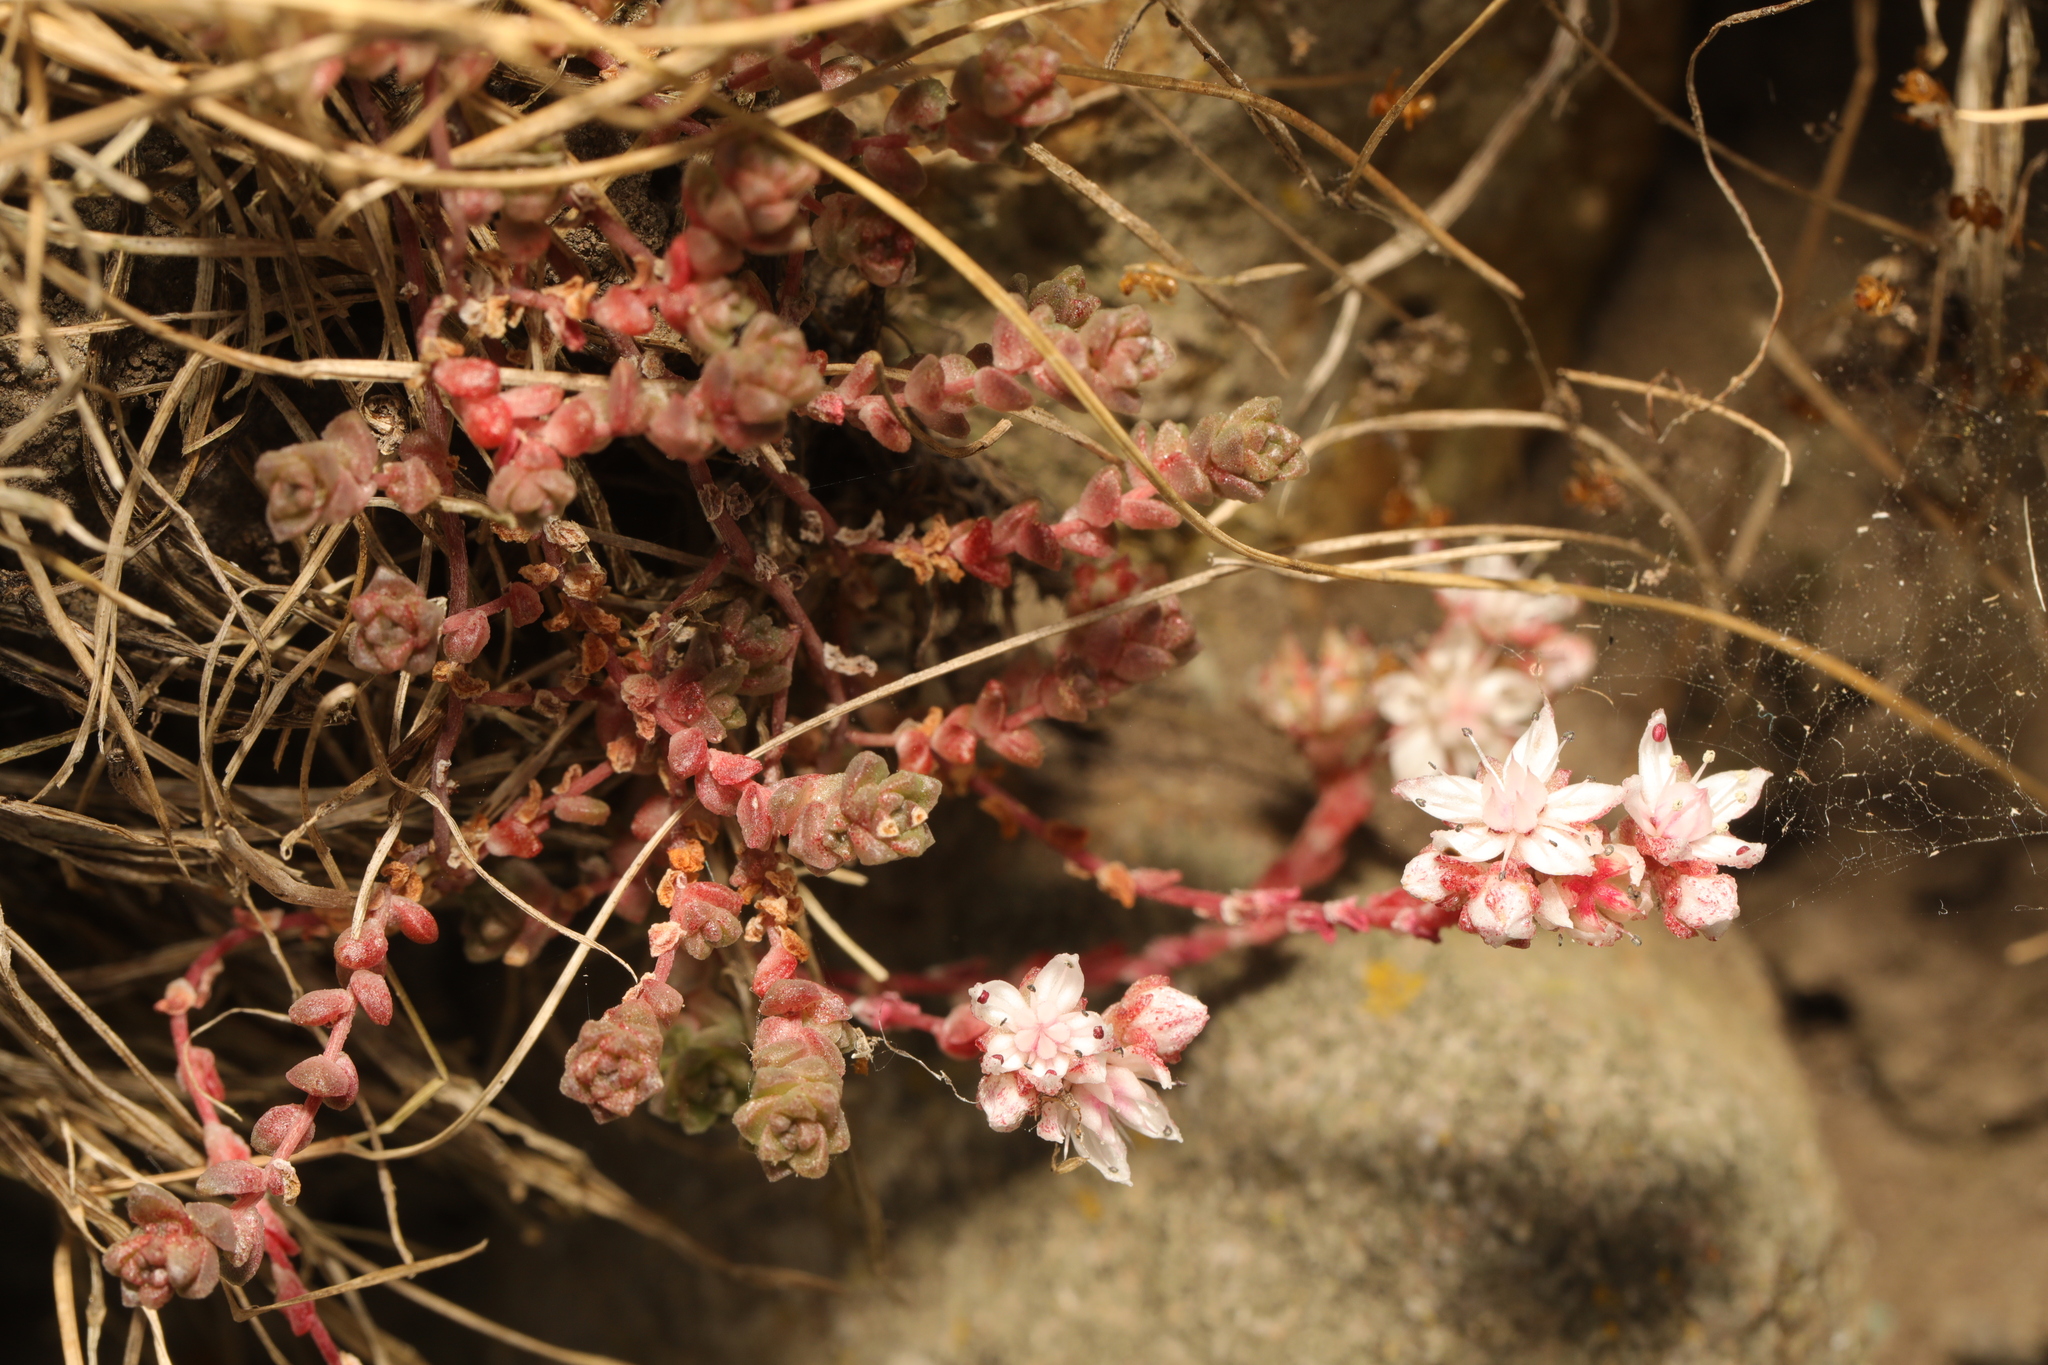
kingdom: Plantae
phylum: Tracheophyta
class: Magnoliopsida
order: Saxifragales
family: Crassulaceae
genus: Sedum
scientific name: Sedum anglicum
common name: English stonecrop
